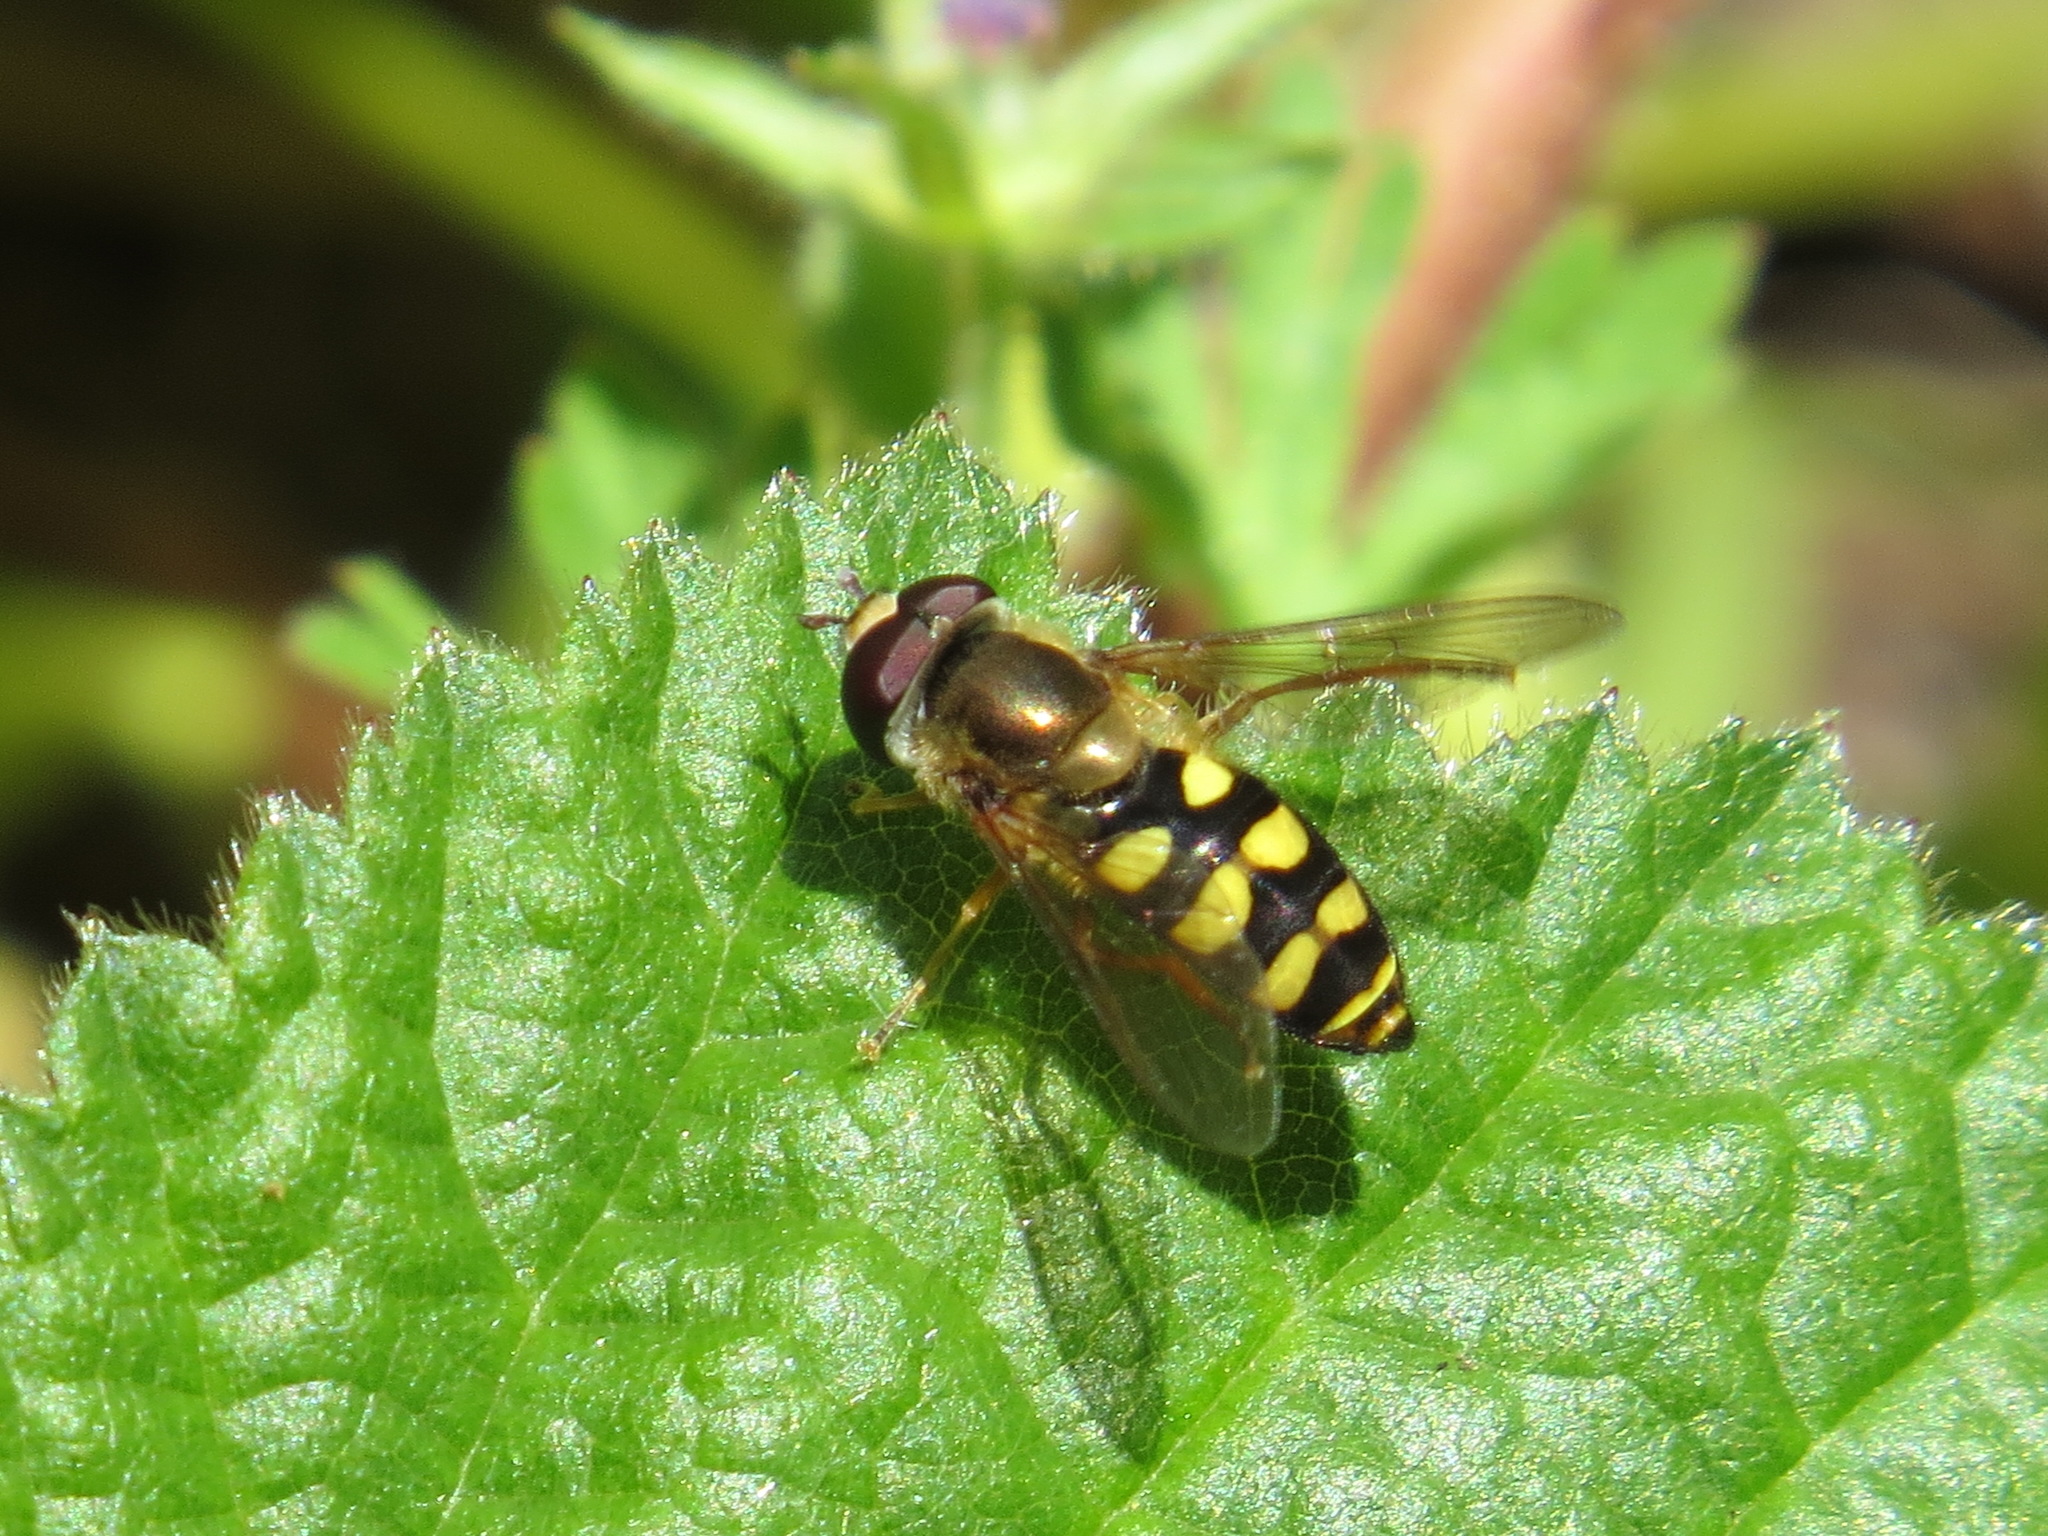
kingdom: Animalia
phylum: Arthropoda
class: Insecta
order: Diptera
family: Syrphidae
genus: Eupeodes
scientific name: Eupeodes fumipennis
